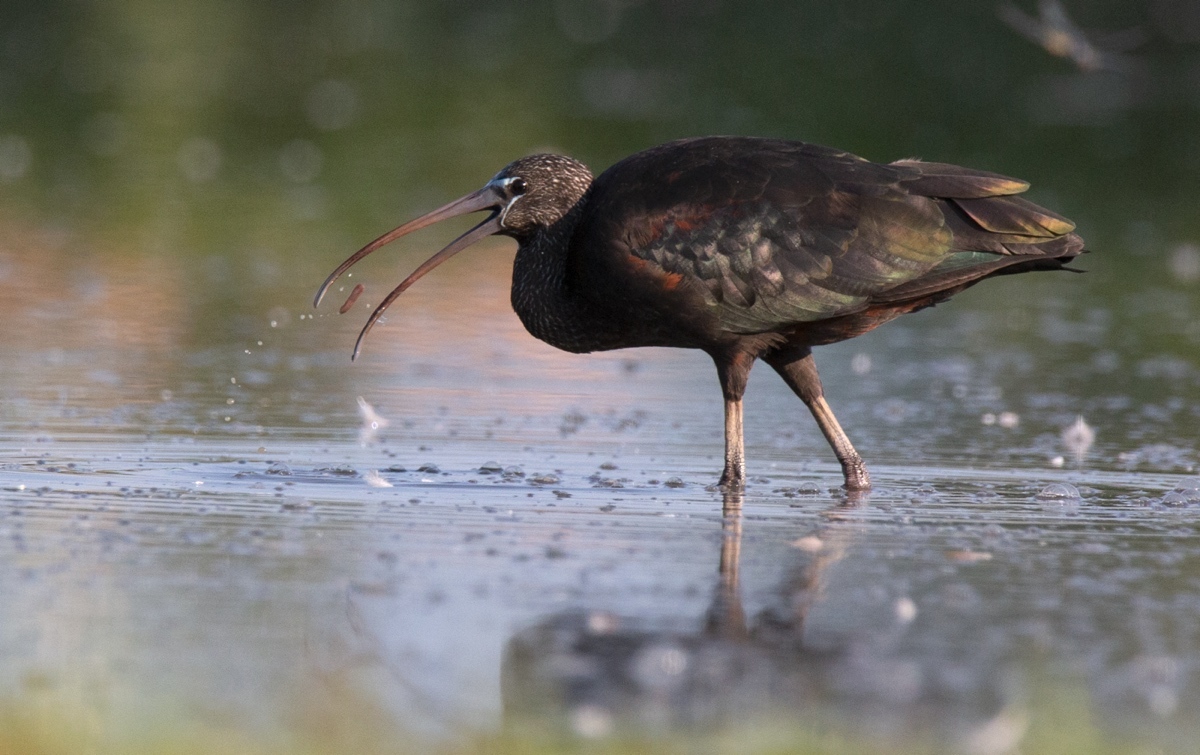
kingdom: Animalia
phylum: Chordata
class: Aves
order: Pelecaniformes
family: Threskiornithidae
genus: Plegadis
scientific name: Plegadis falcinellus
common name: Glossy ibis
